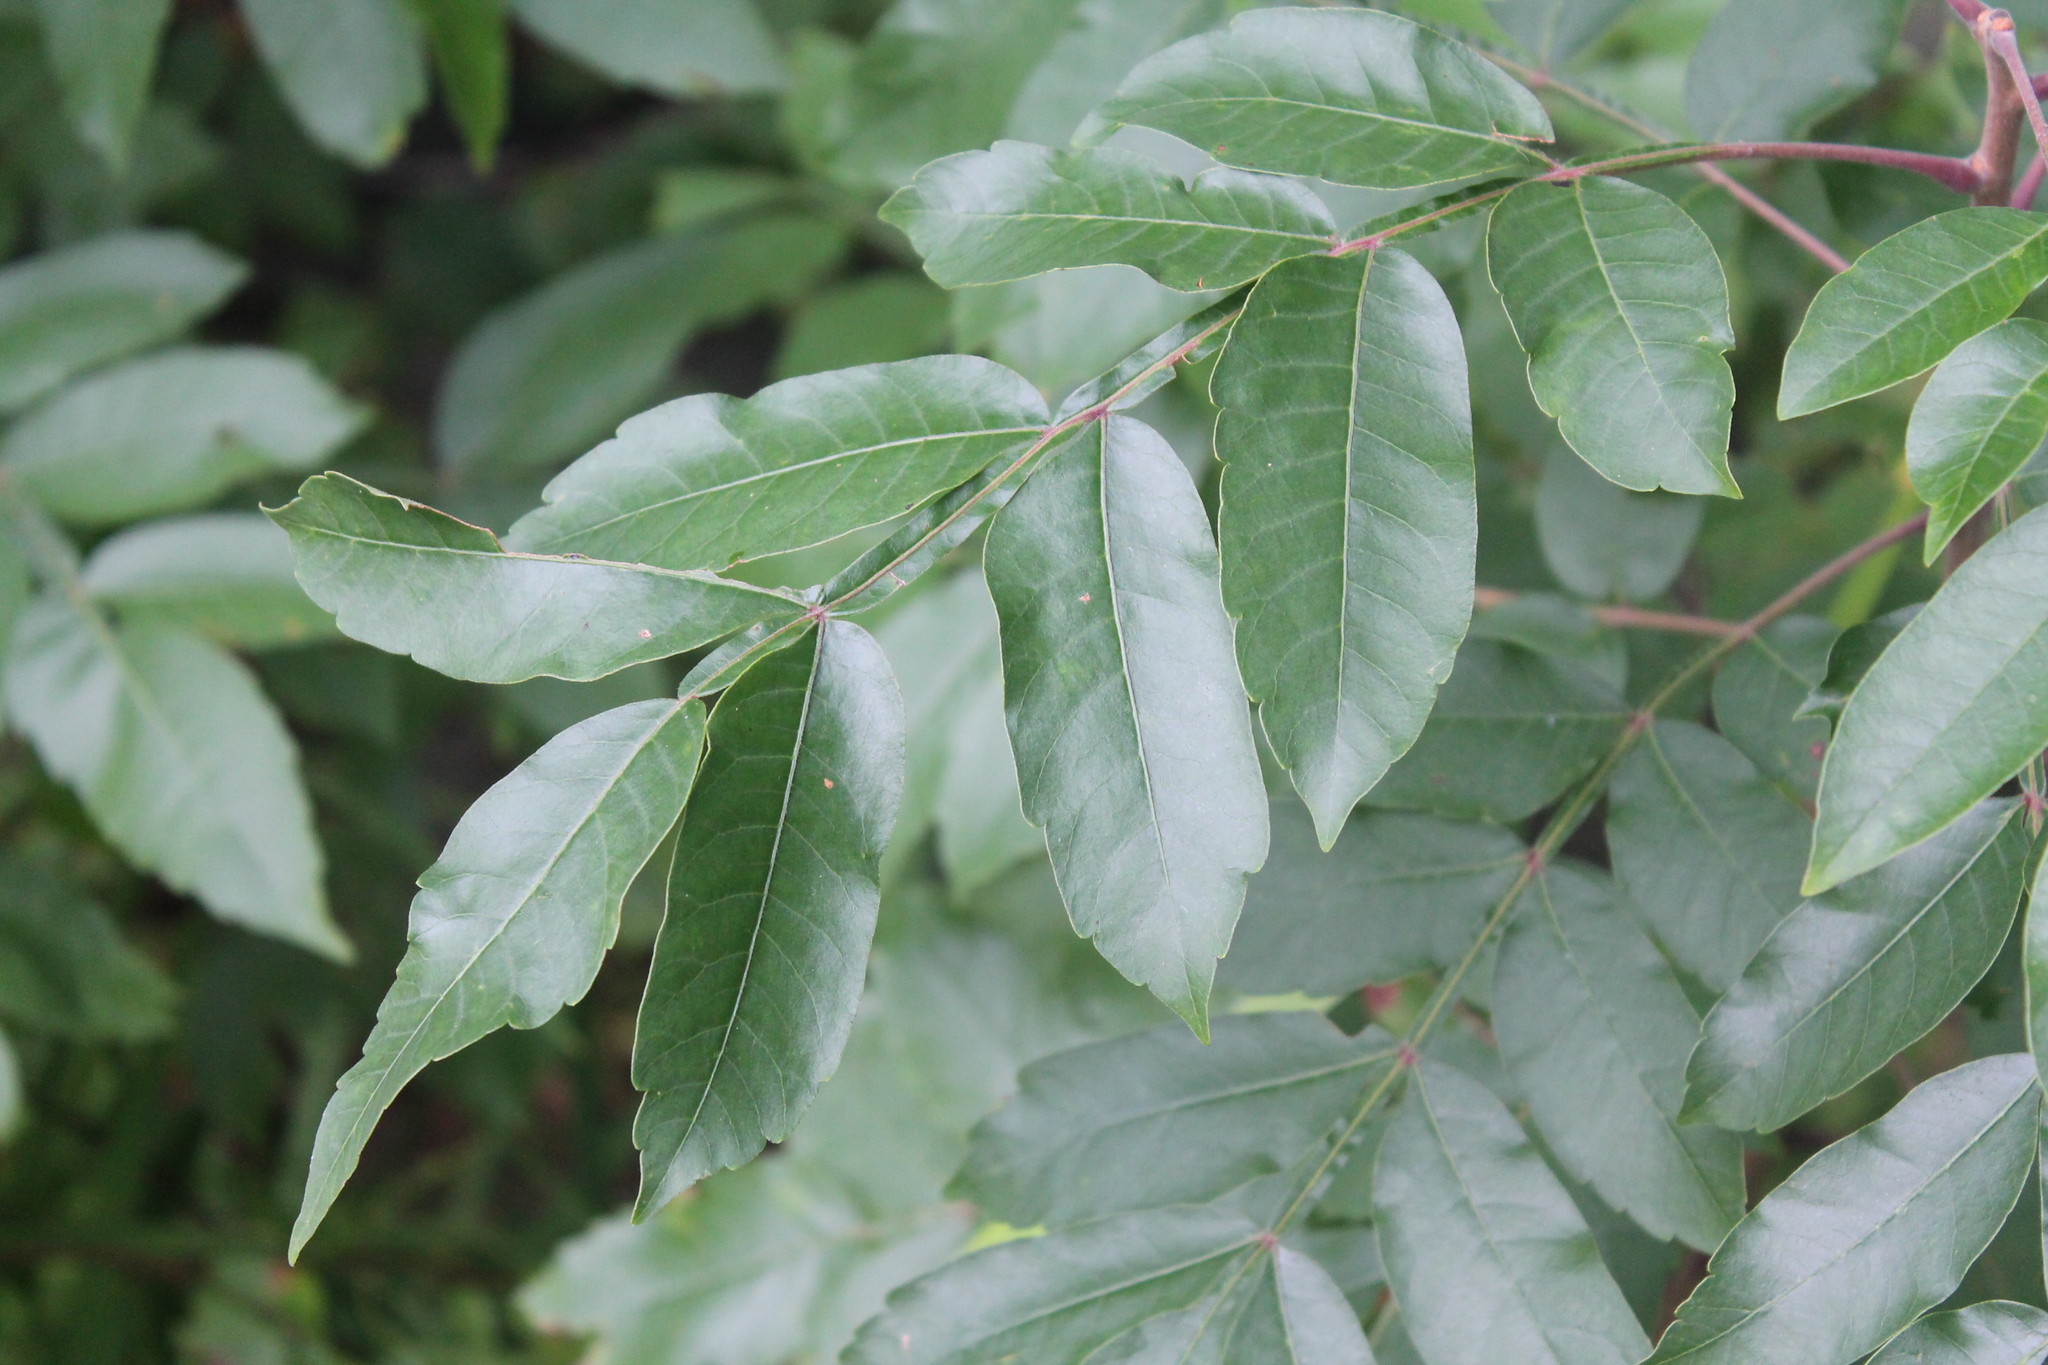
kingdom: Plantae
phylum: Tracheophyta
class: Magnoliopsida
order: Sapindales
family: Anacardiaceae
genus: Rhus
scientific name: Rhus copallina
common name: Shining sumac
